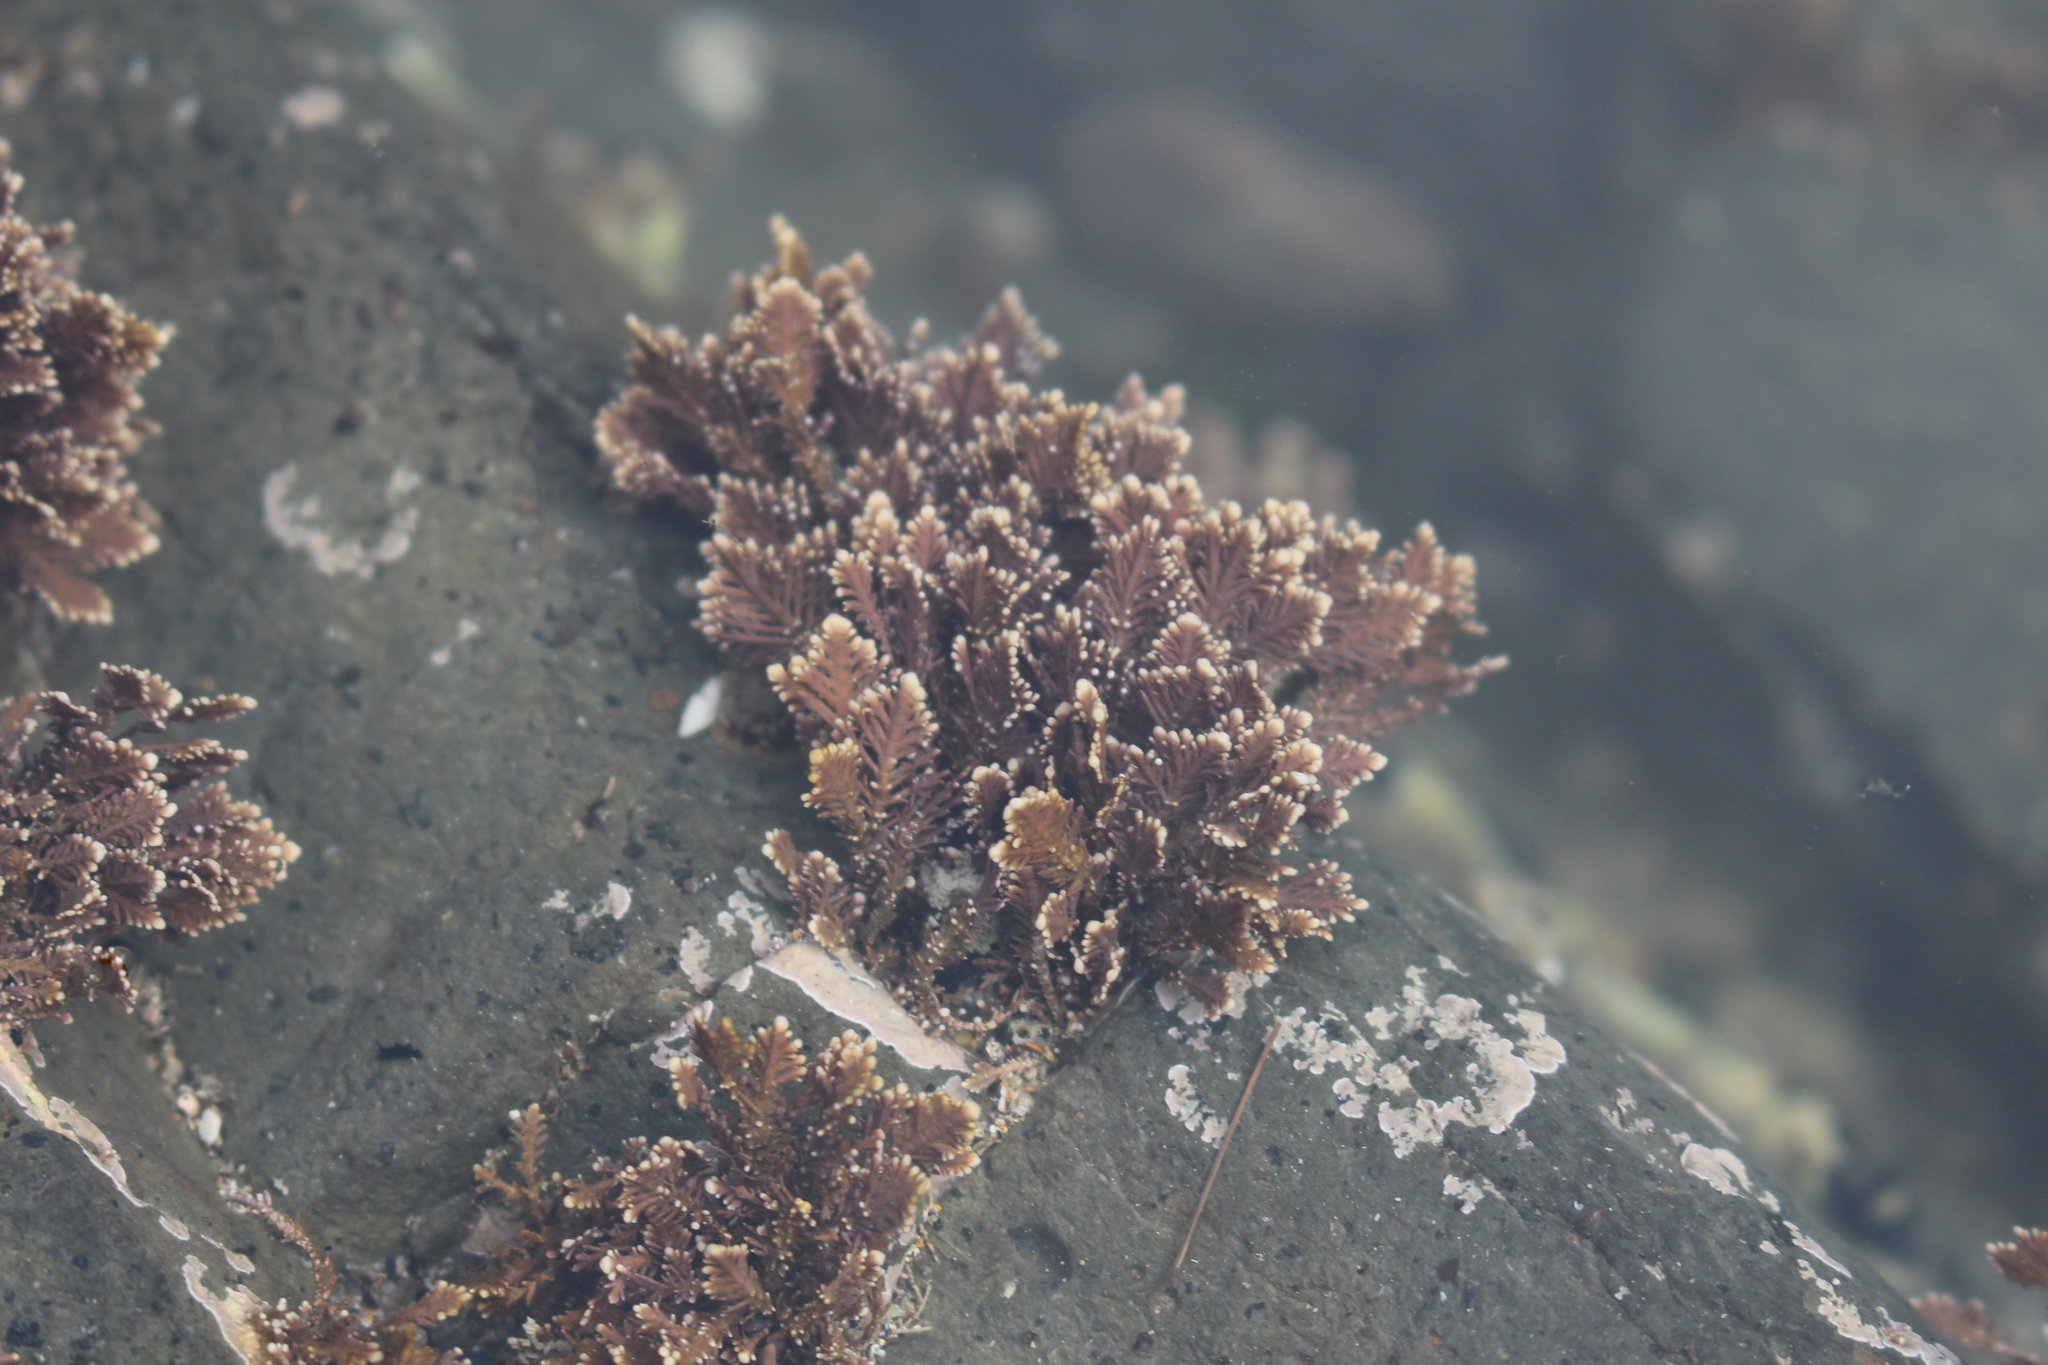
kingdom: Plantae
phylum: Rhodophyta
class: Florideophyceae
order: Corallinales
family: Corallinaceae
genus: Corallina
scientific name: Corallina officinalis
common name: Coral weed
